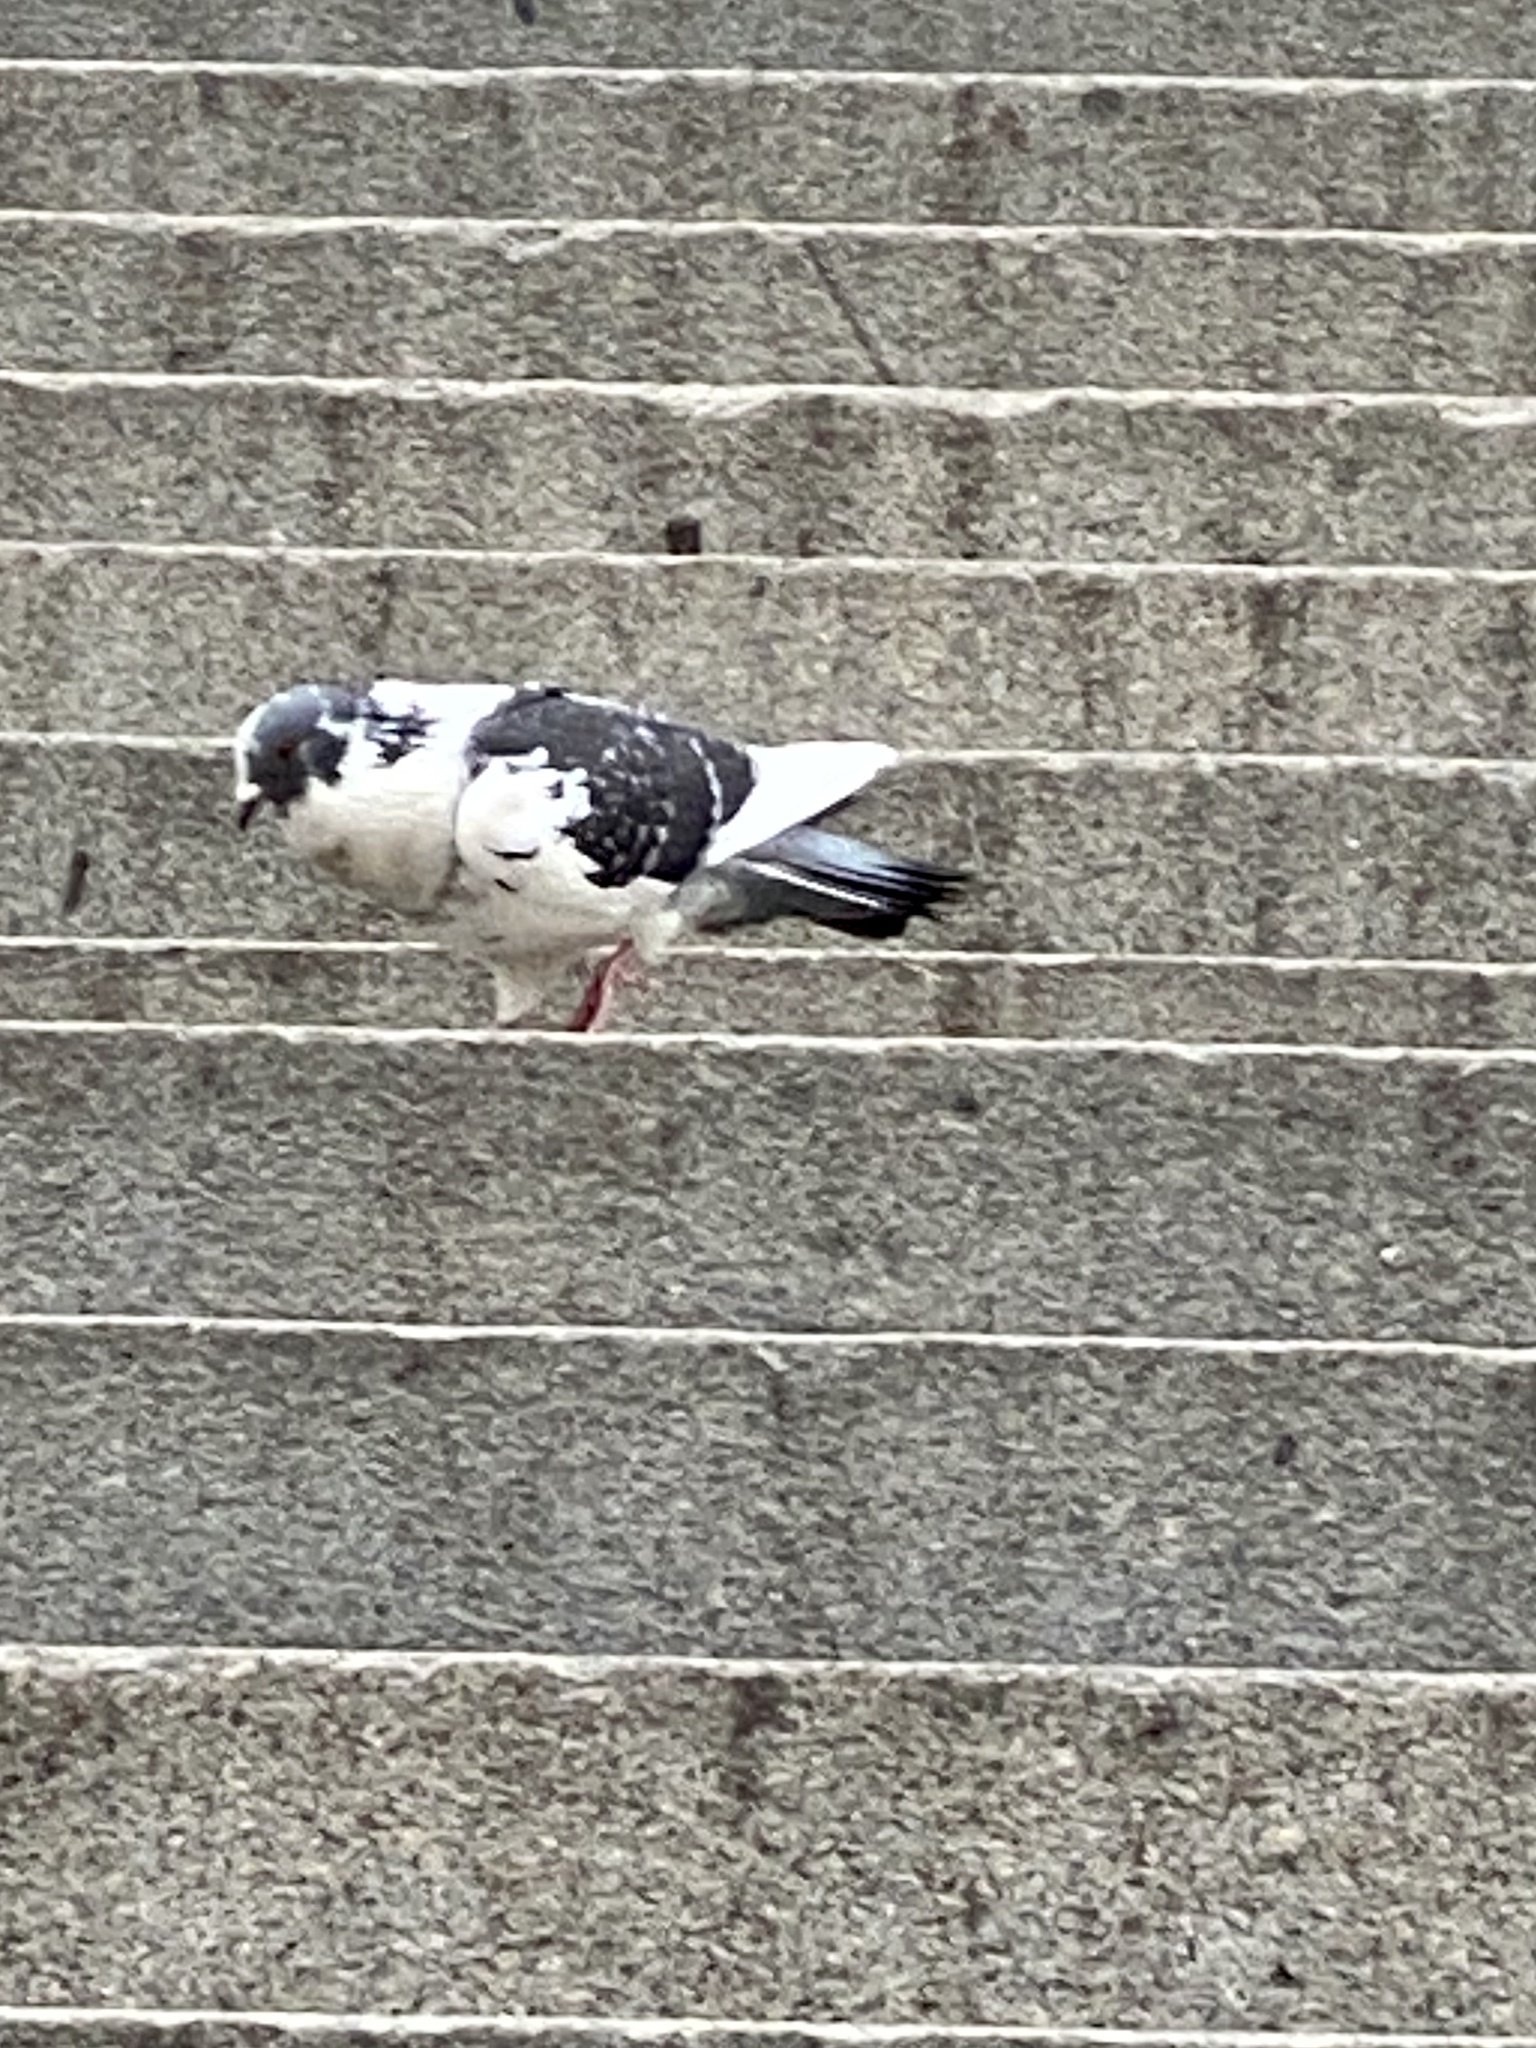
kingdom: Animalia
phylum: Chordata
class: Aves
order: Columbiformes
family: Columbidae
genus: Columba
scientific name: Columba livia
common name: Rock pigeon
